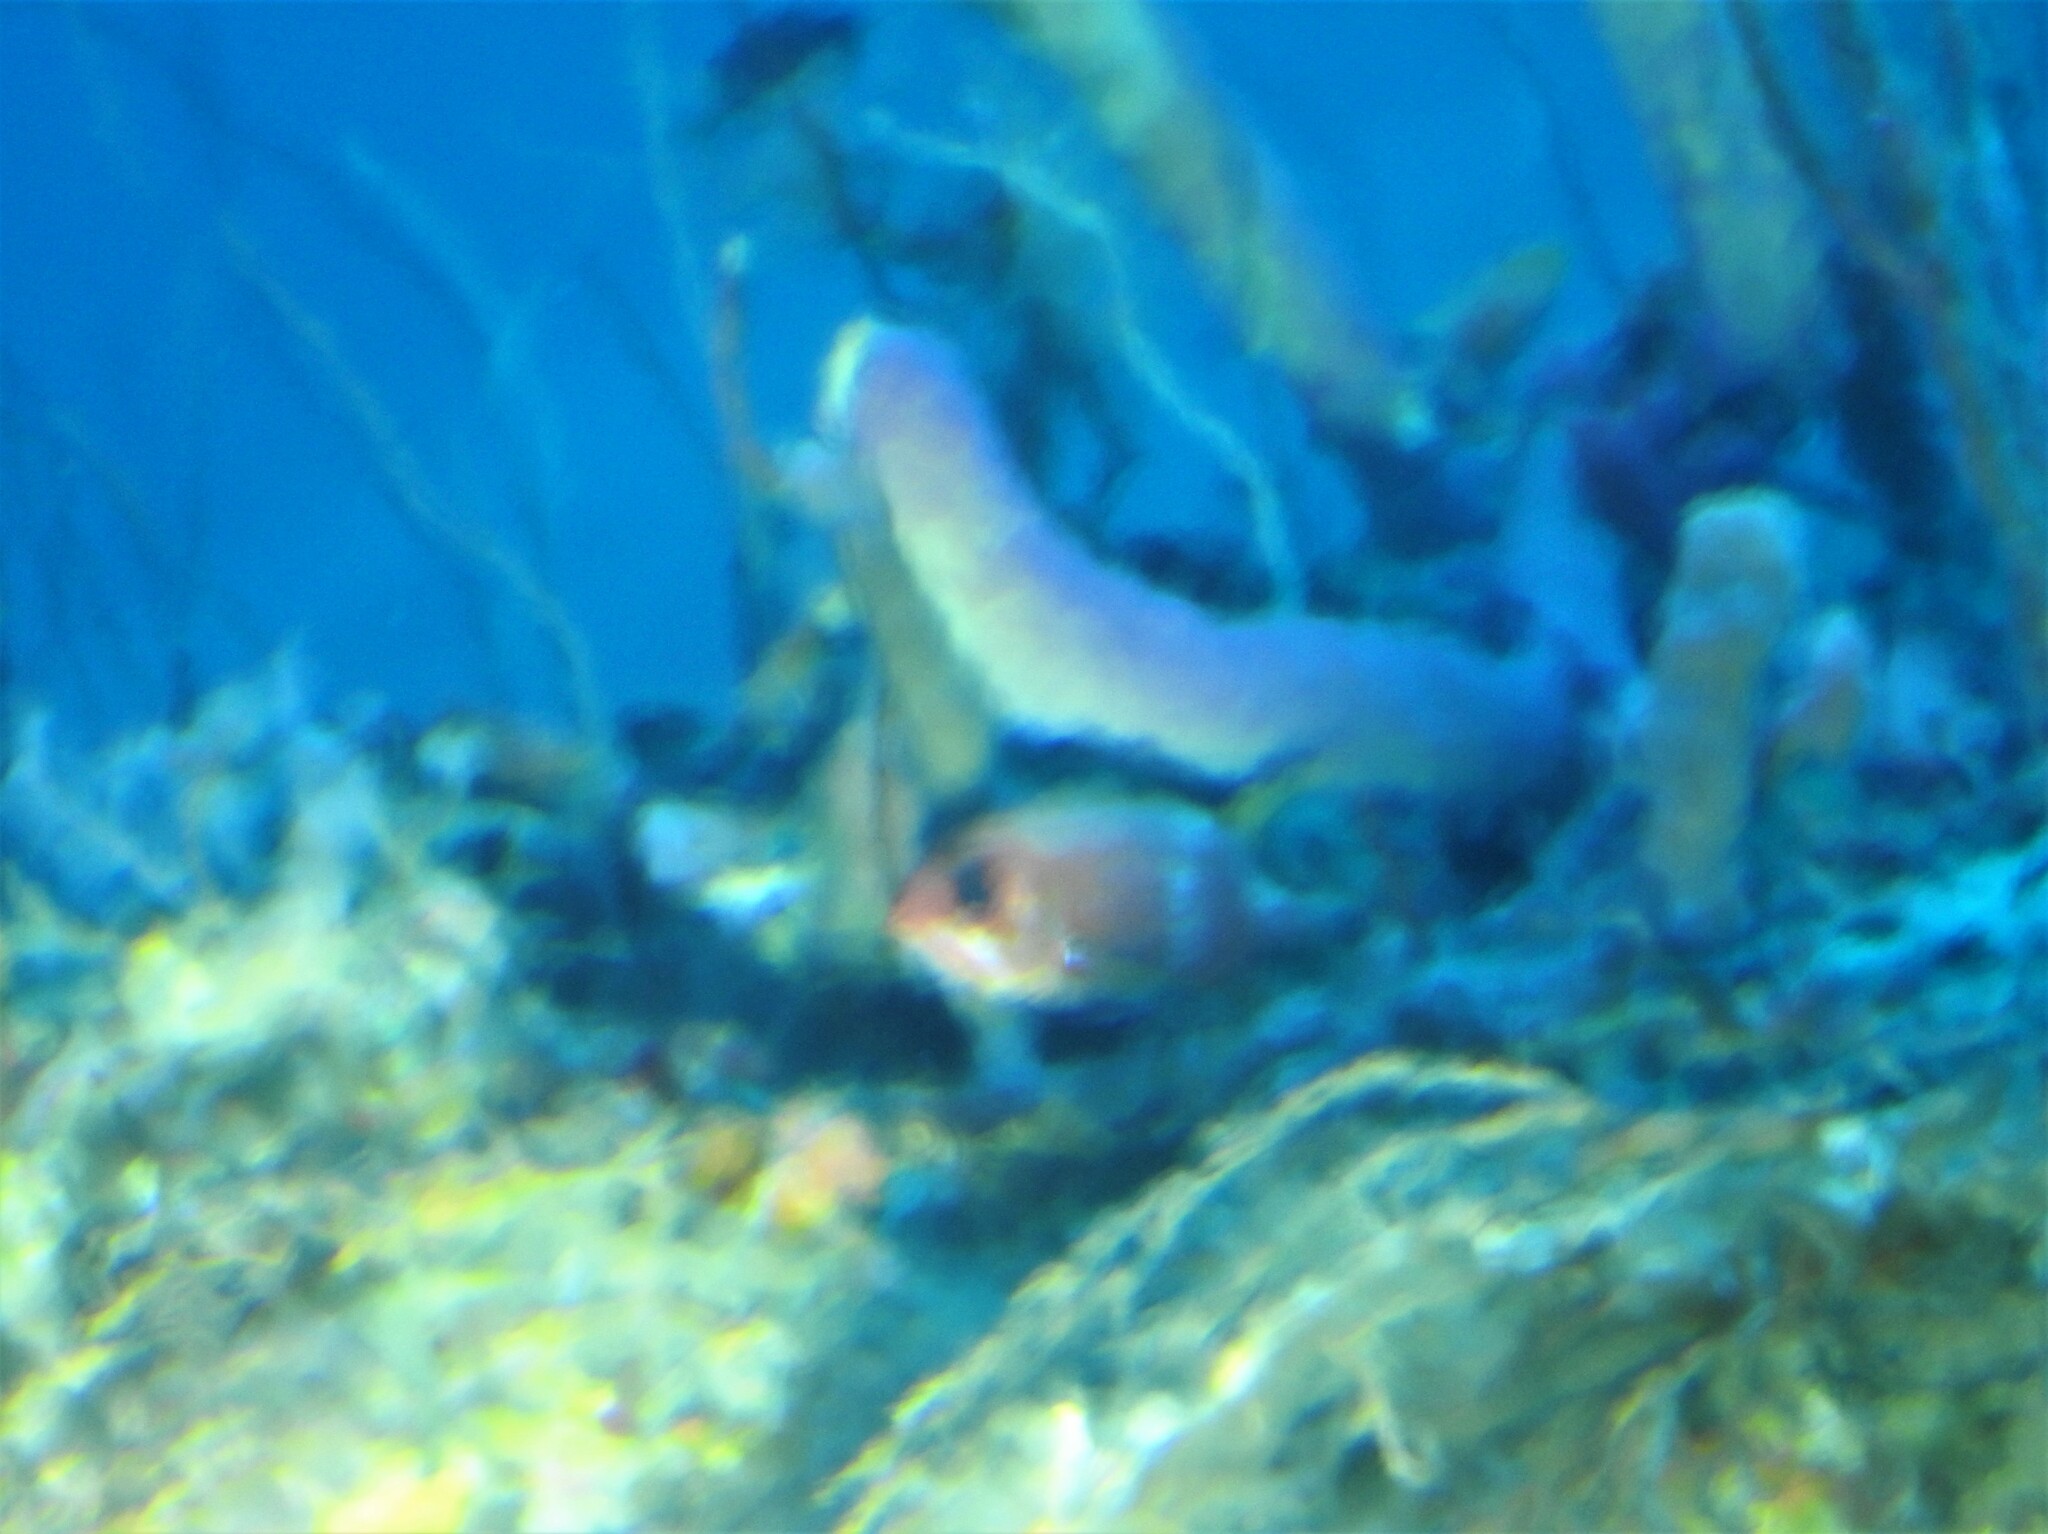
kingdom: Animalia
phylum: Chordata
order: Beryciformes
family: Holocentridae
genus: Holocentrus
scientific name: Holocentrus
